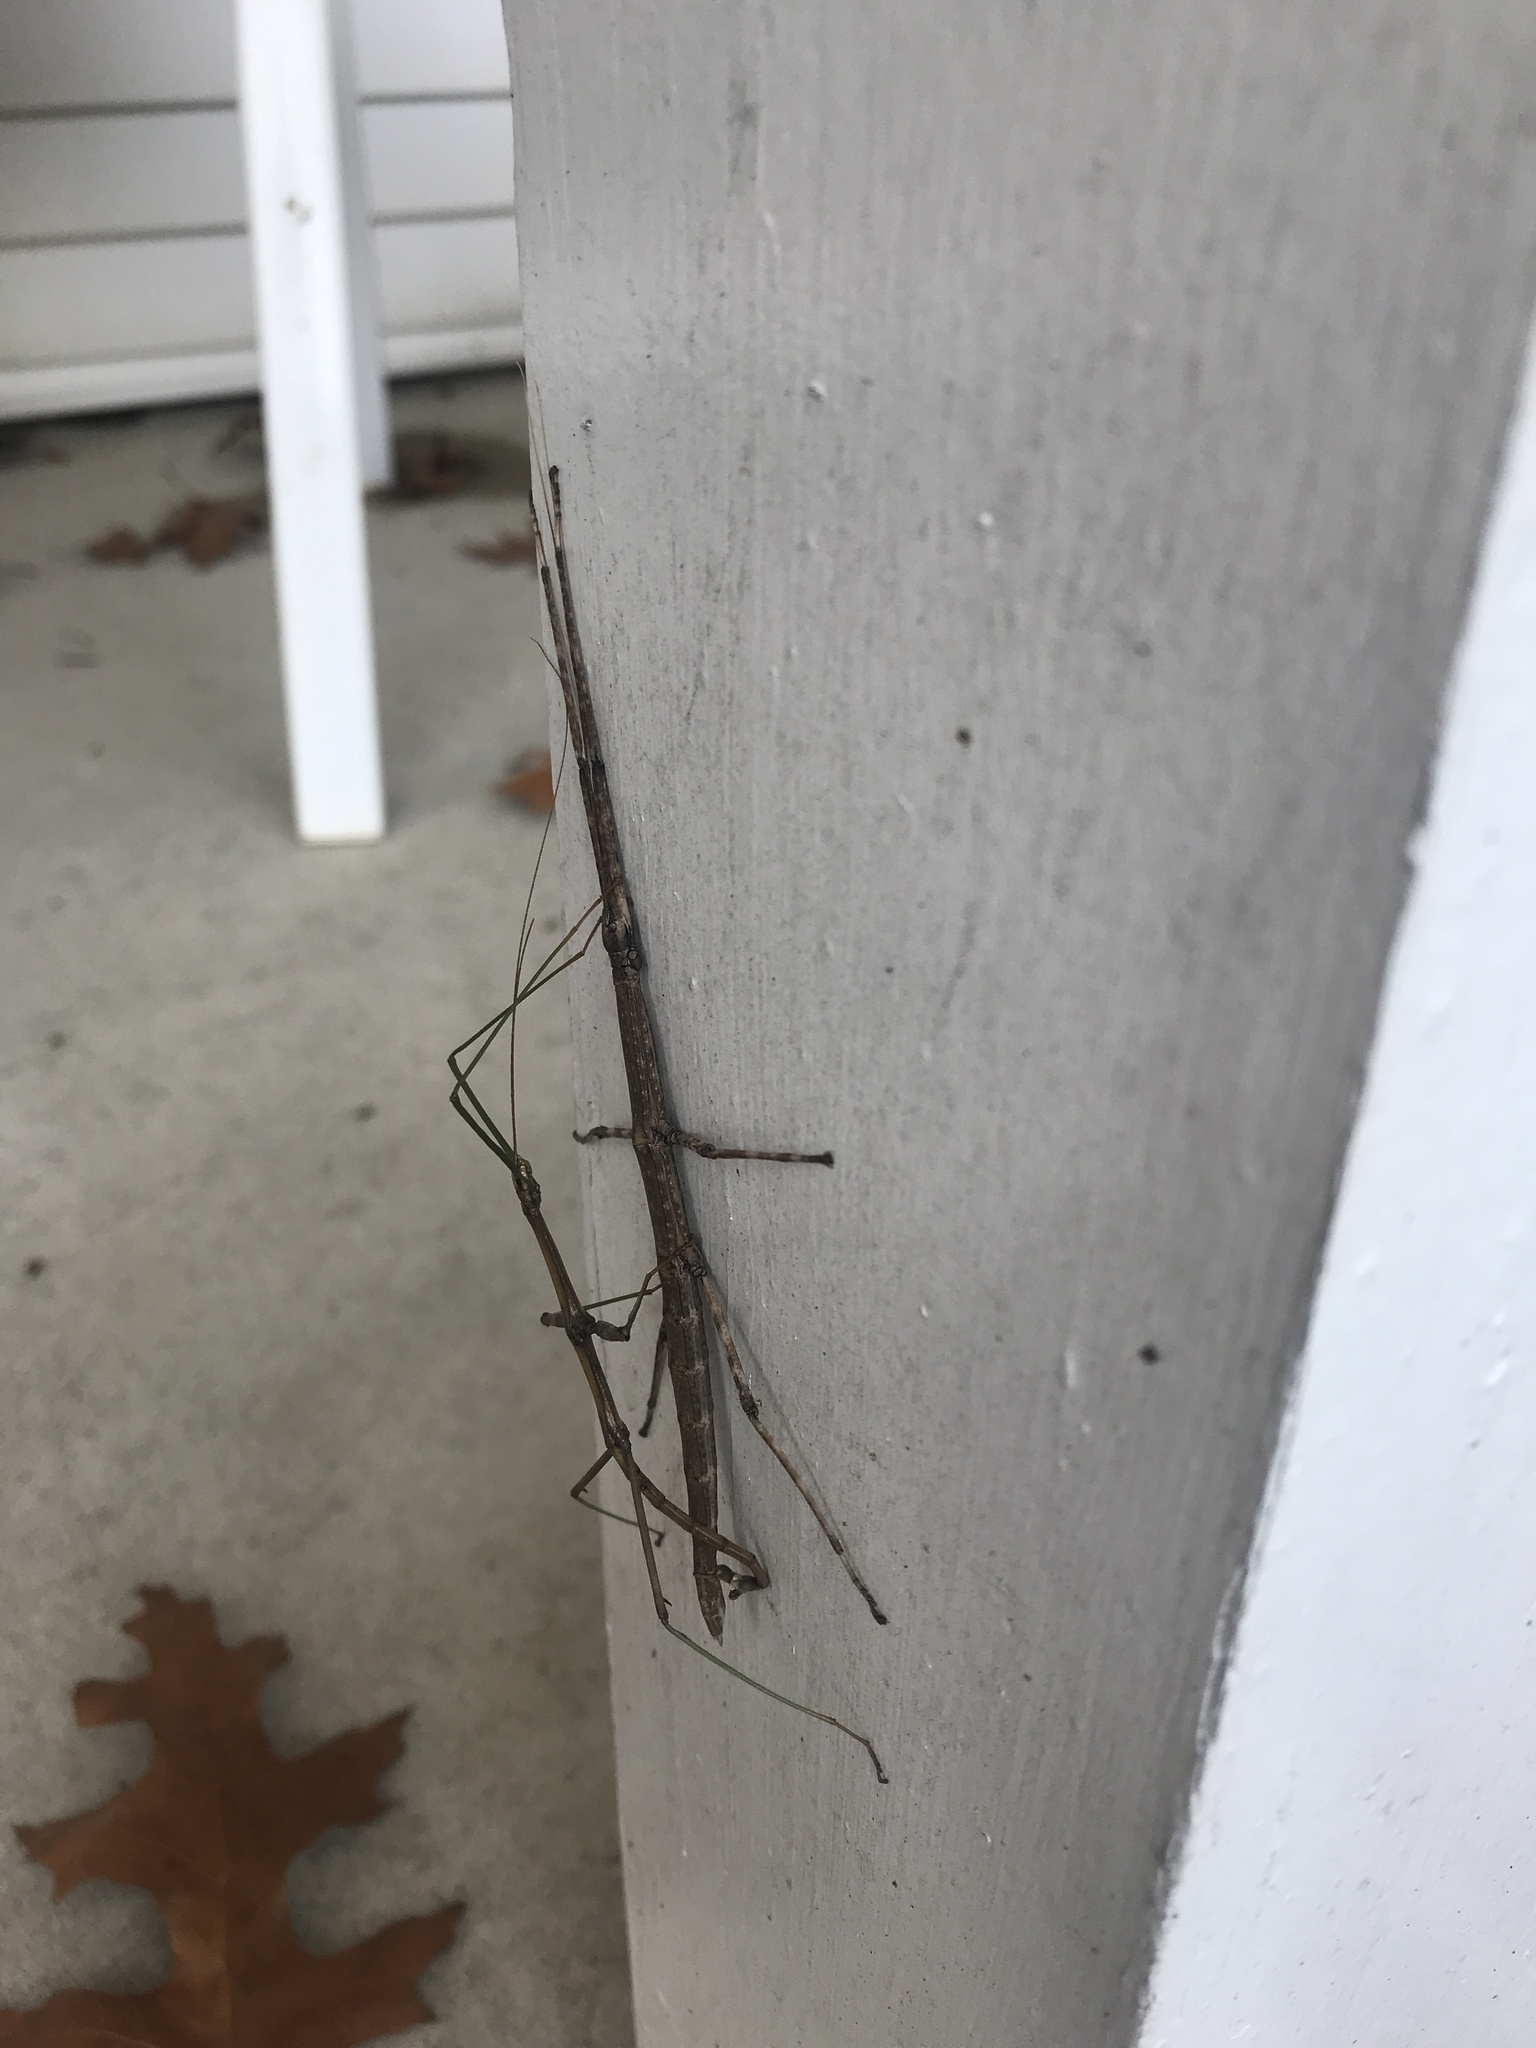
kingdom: Animalia
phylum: Arthropoda
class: Insecta
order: Phasmida
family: Diapheromeridae
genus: Diapheromera
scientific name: Diapheromera femorata
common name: Common american walkingstick
